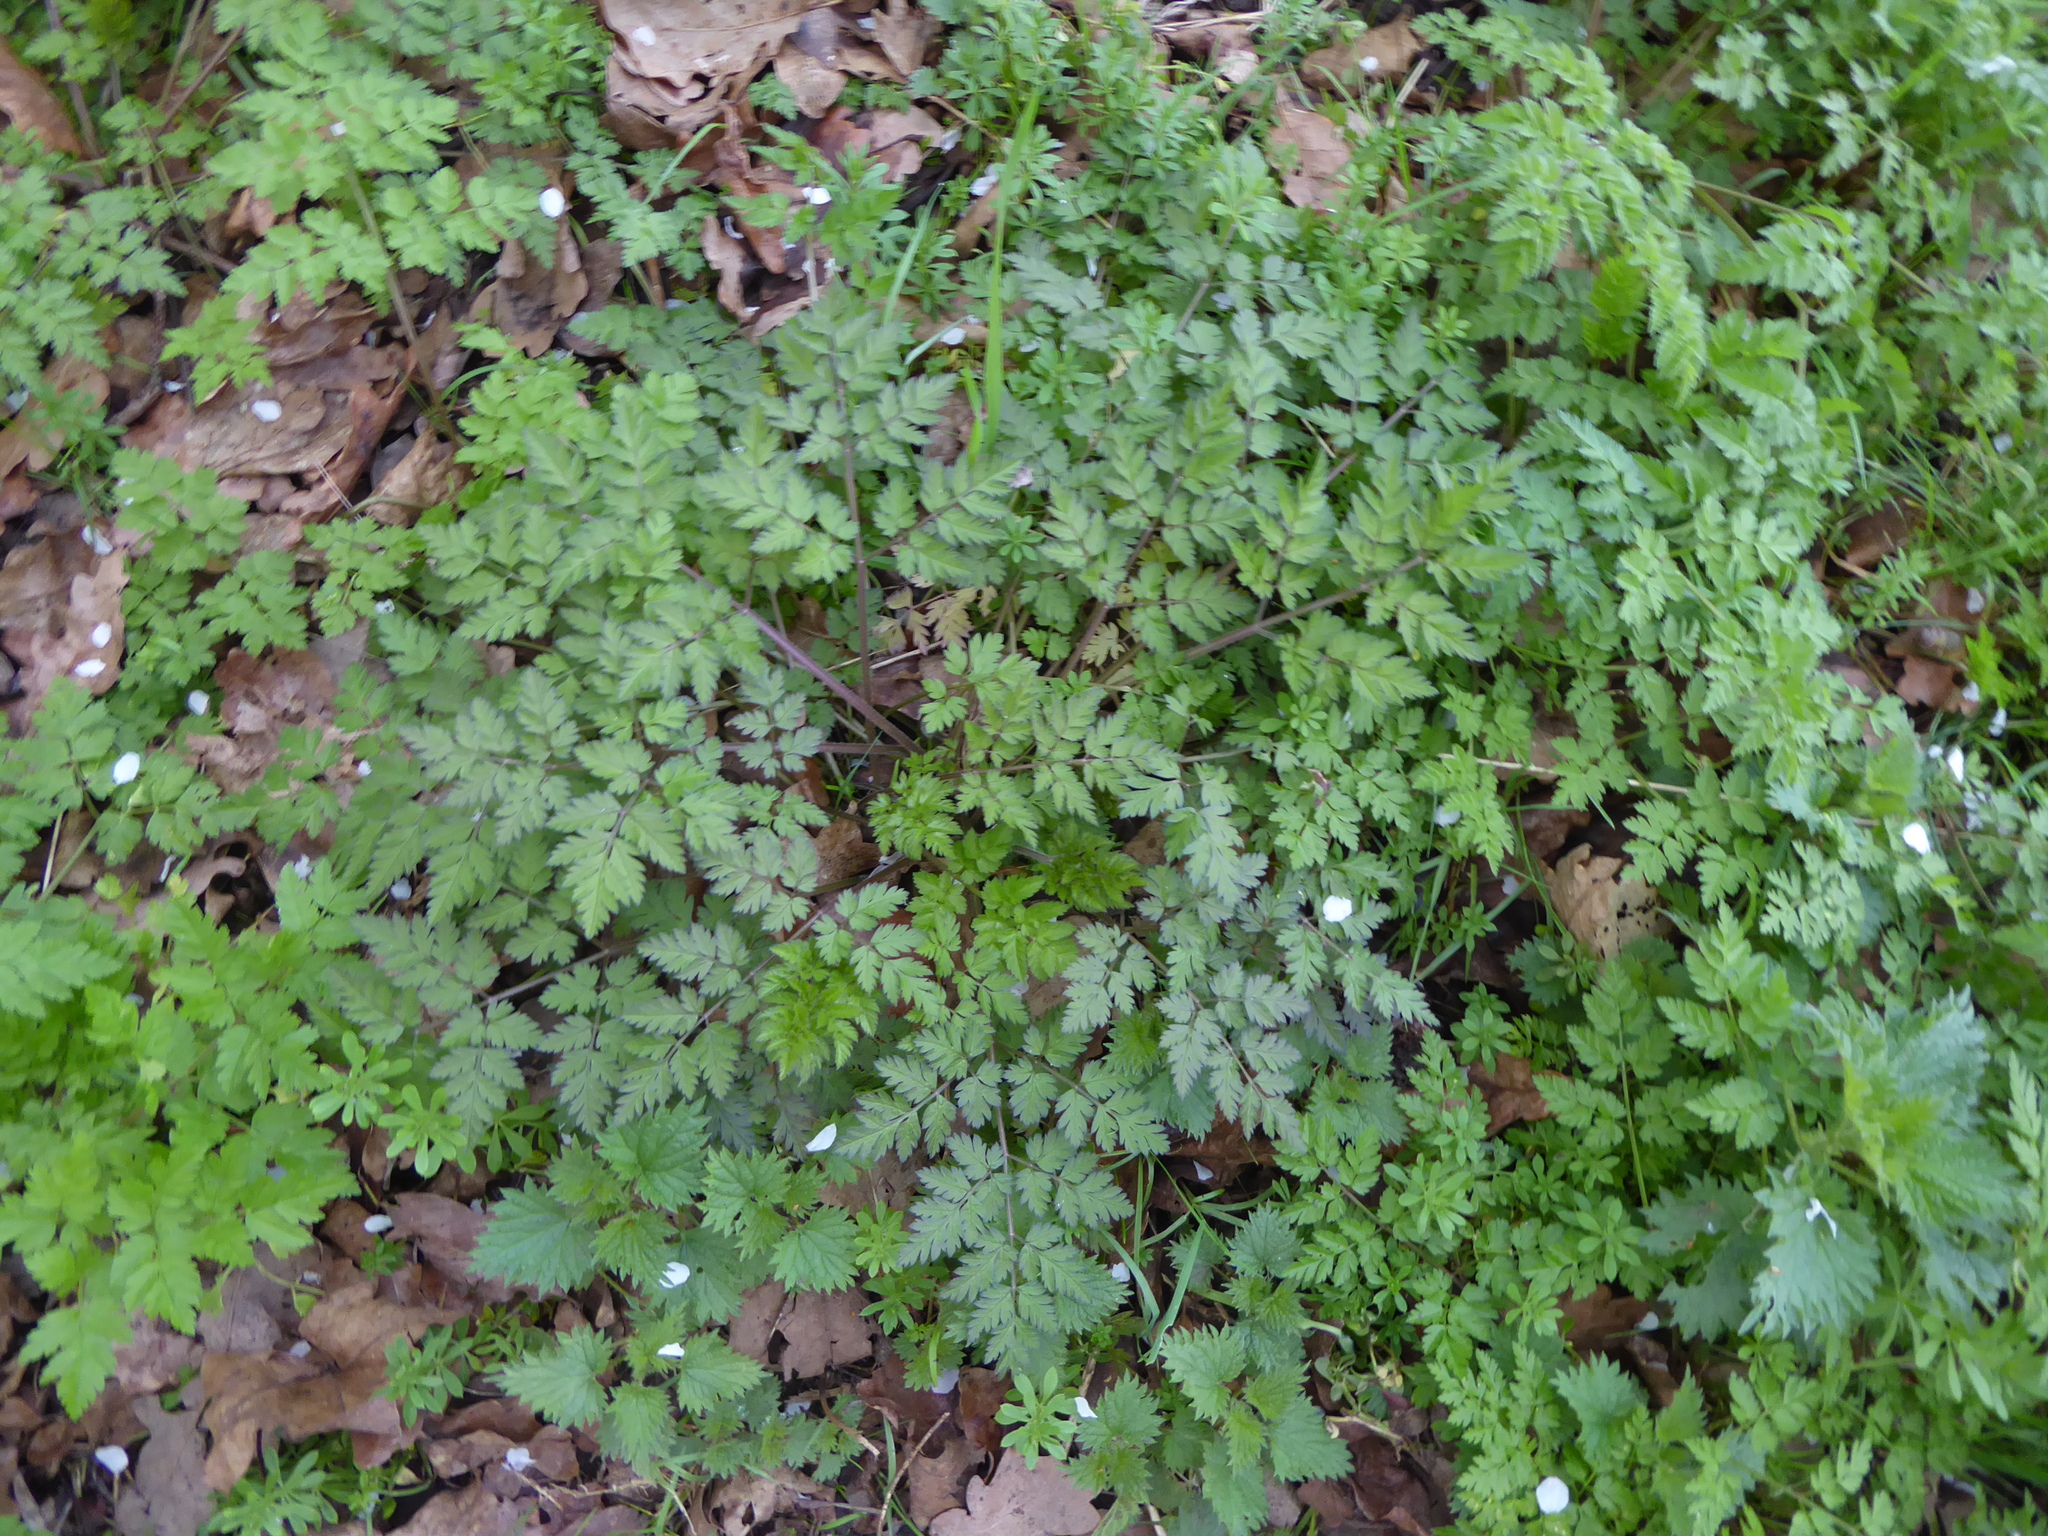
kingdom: Plantae
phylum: Tracheophyta
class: Magnoliopsida
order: Apiales
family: Apiaceae
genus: Anthriscus
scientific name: Anthriscus sylvestris
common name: Cow parsley
